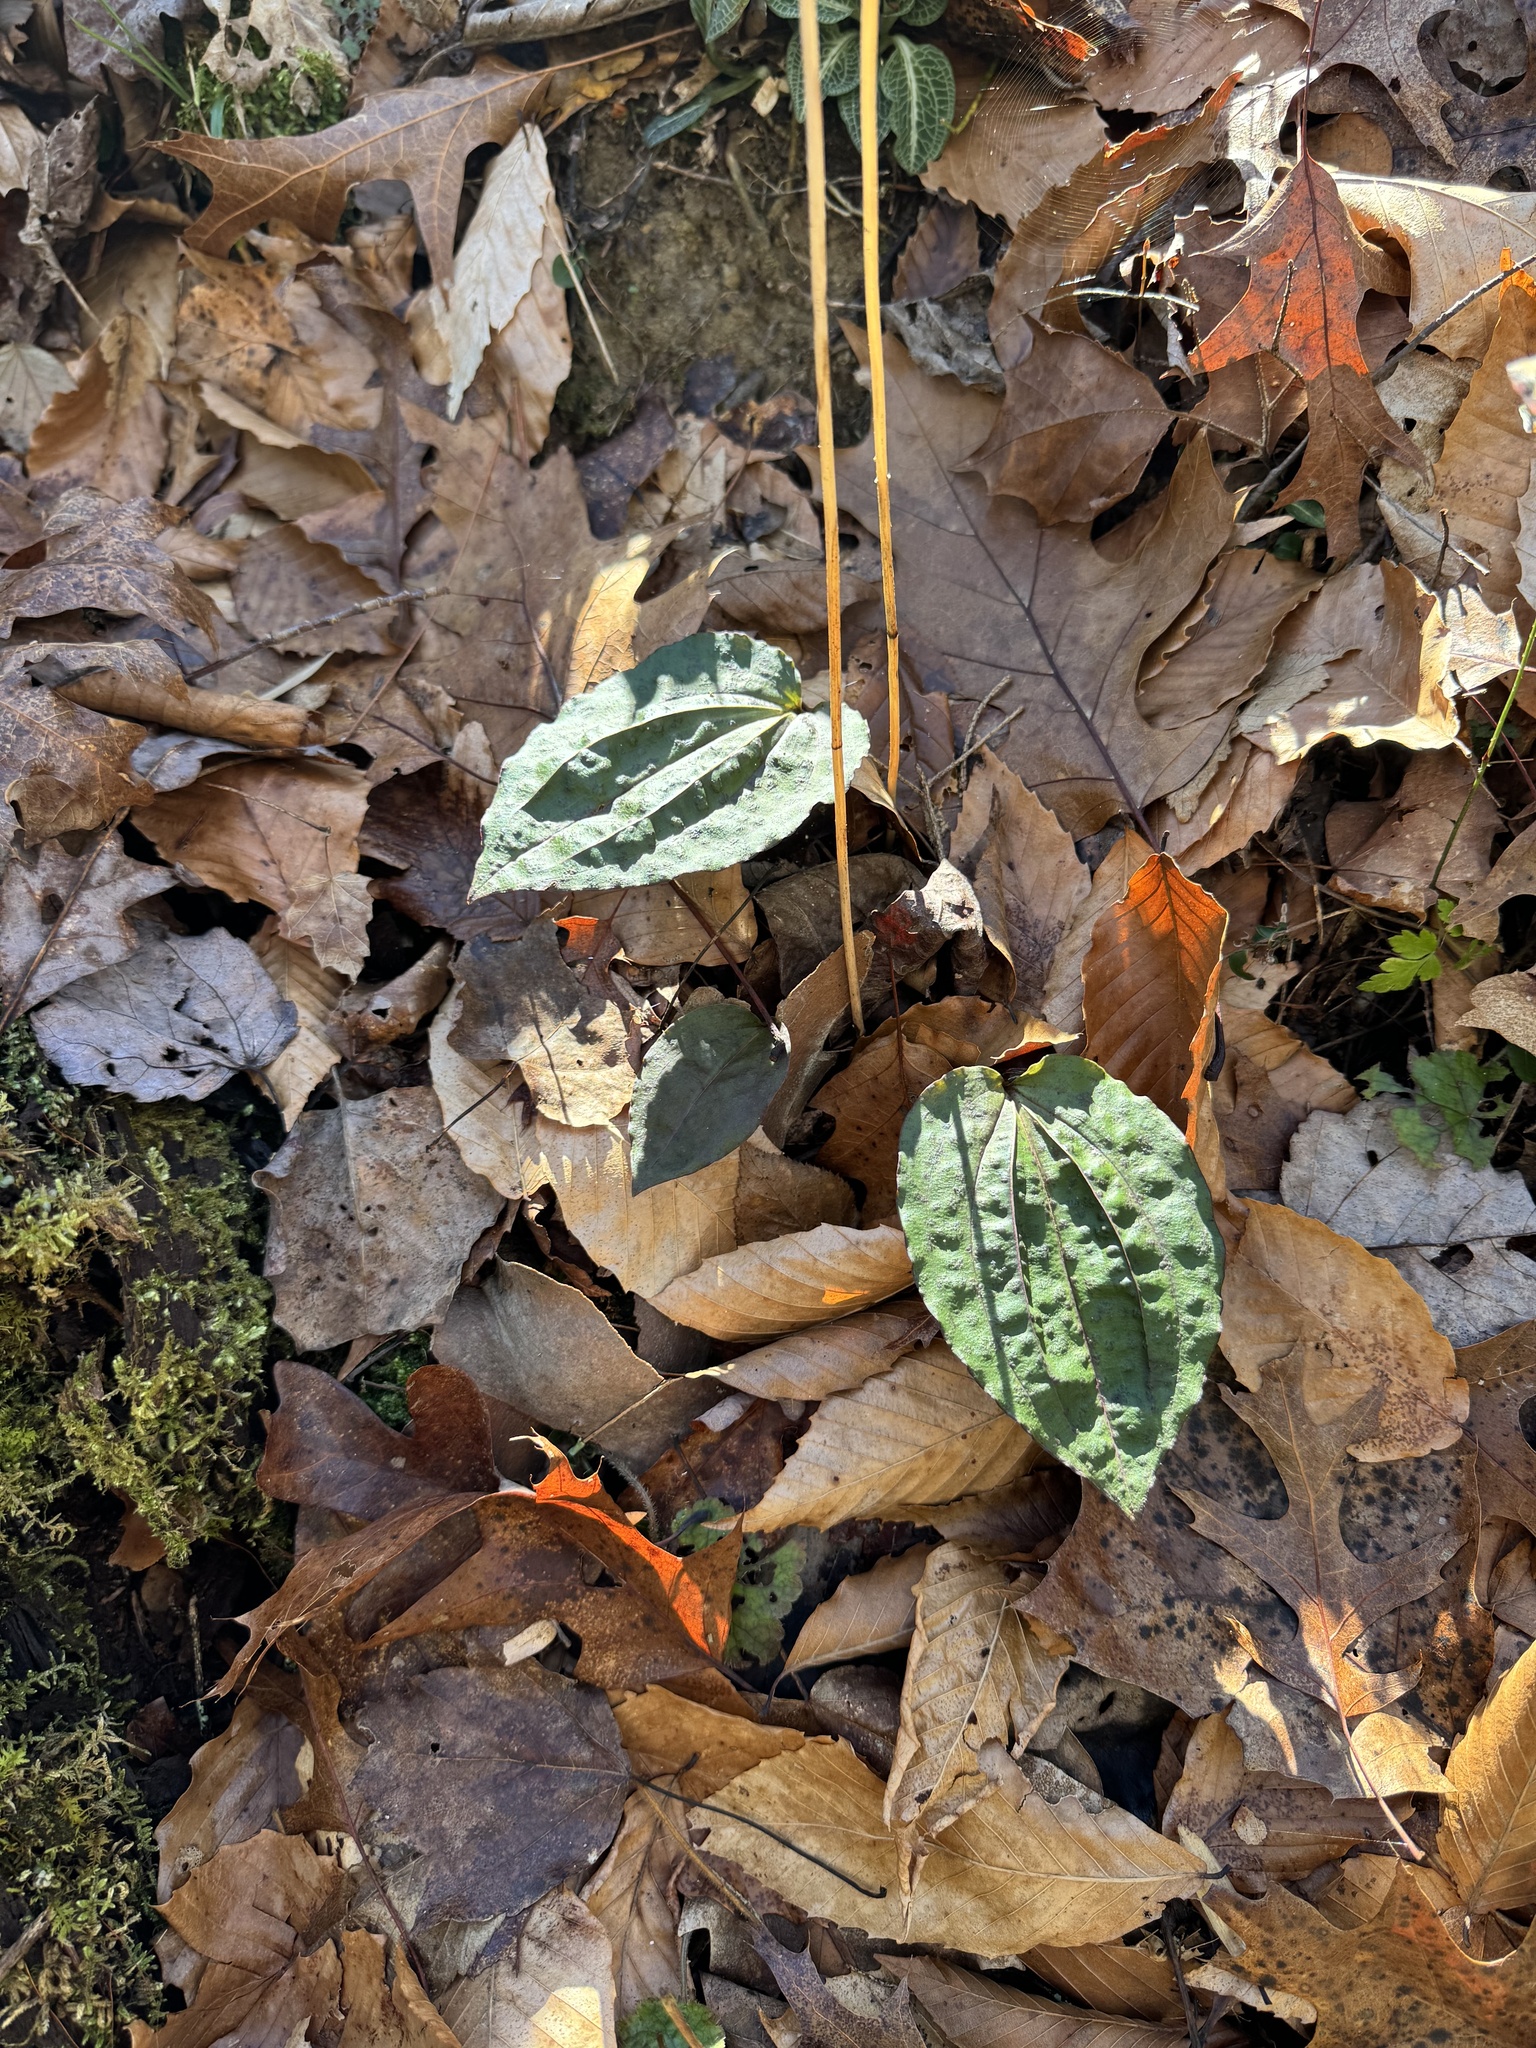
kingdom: Plantae
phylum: Tracheophyta
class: Liliopsida
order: Asparagales
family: Orchidaceae
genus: Tipularia
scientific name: Tipularia discolor
